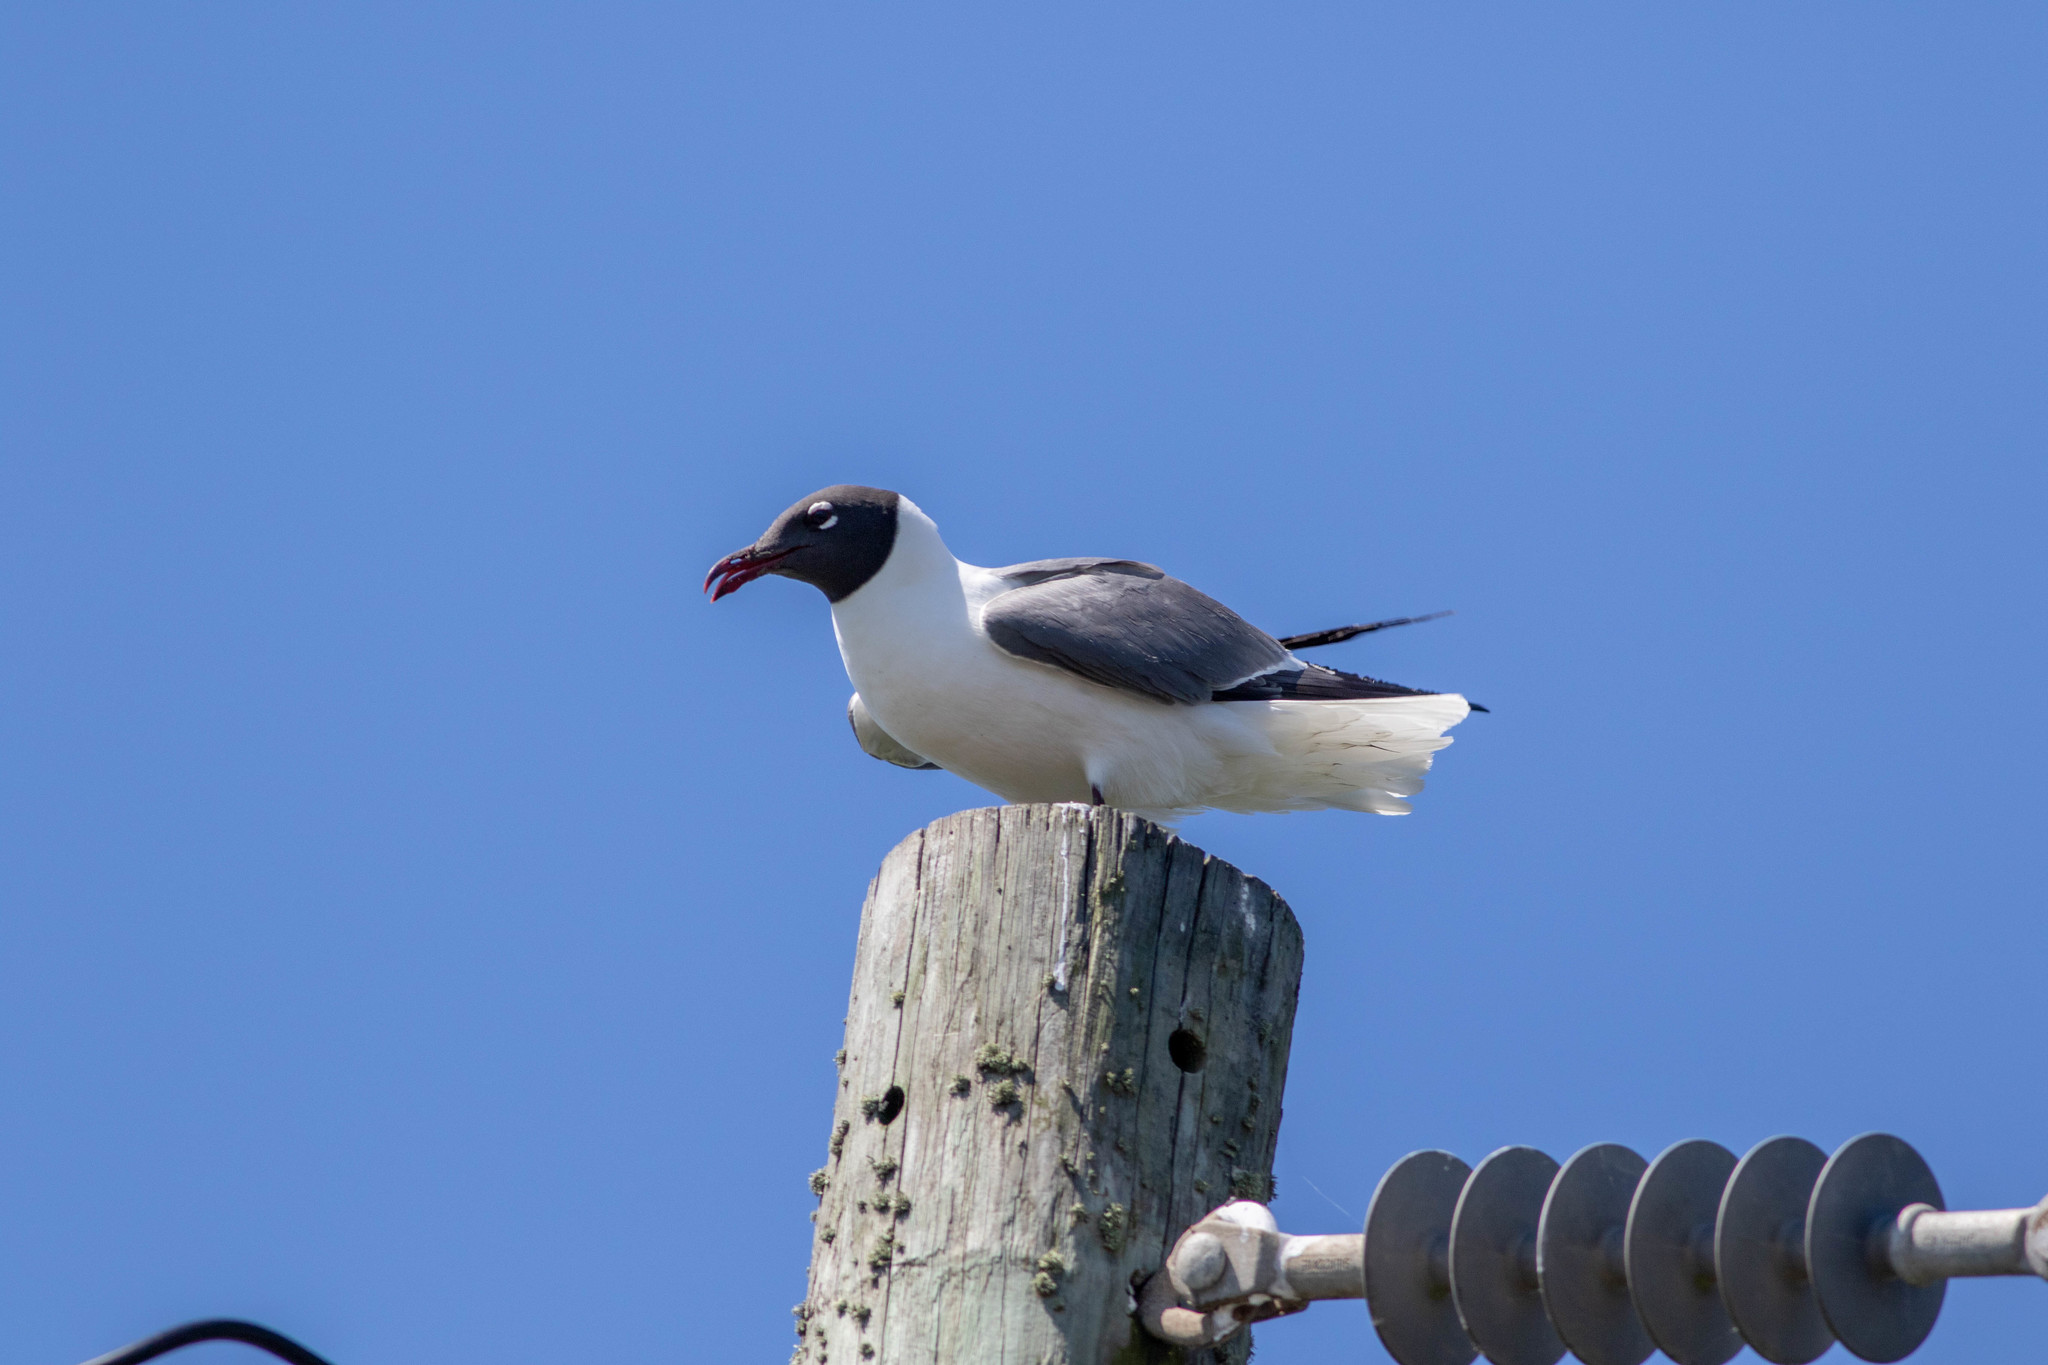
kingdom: Animalia
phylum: Chordata
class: Aves
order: Charadriiformes
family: Laridae
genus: Leucophaeus
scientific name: Leucophaeus atricilla
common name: Laughing gull
